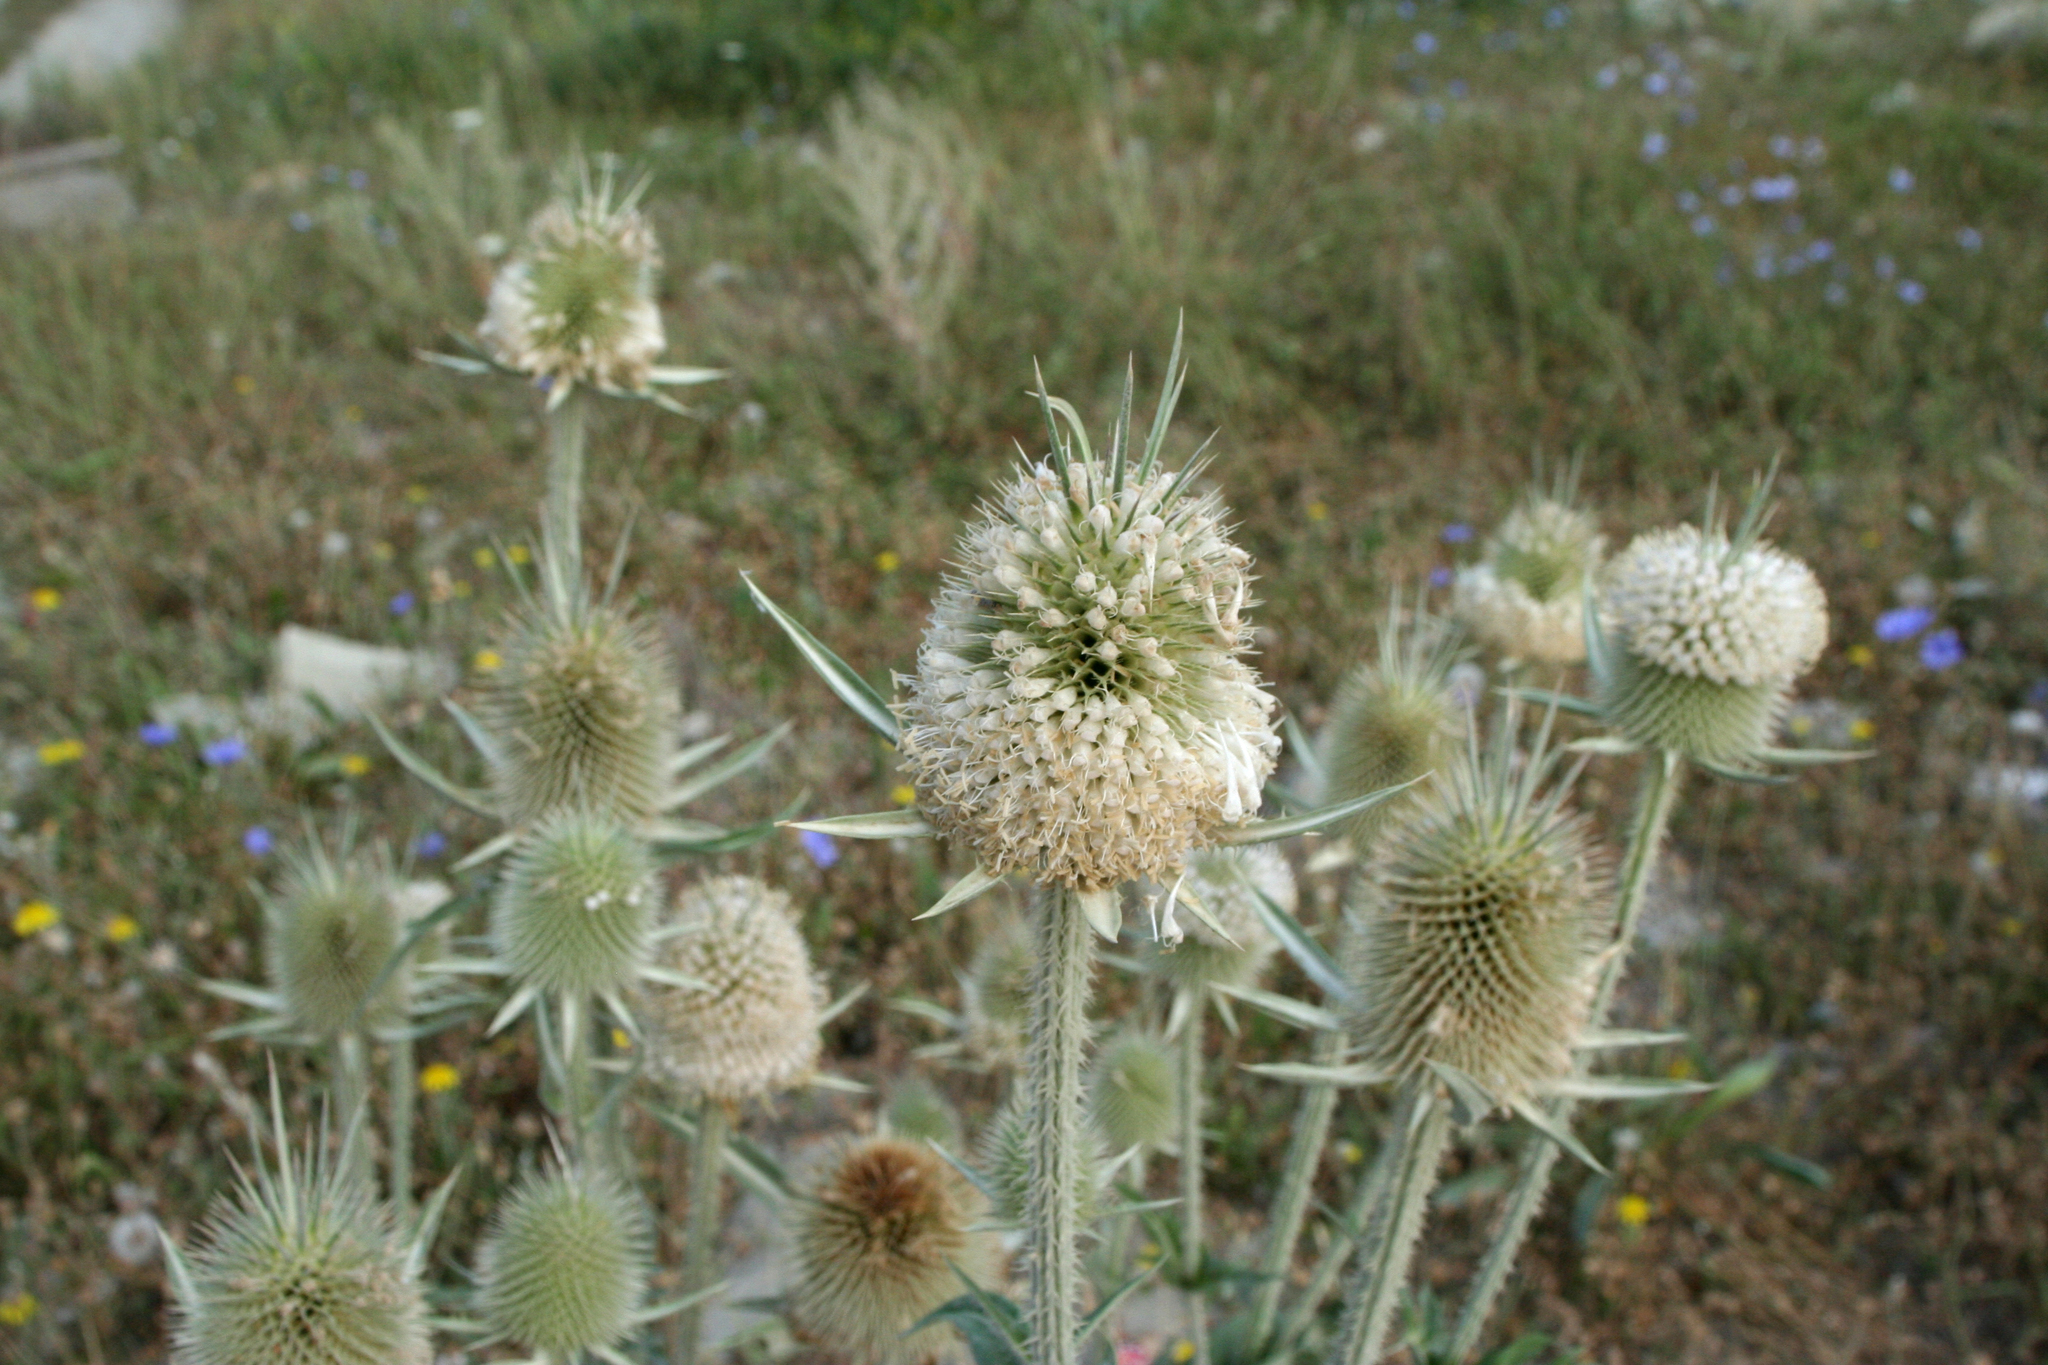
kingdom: Plantae
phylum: Tracheophyta
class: Magnoliopsida
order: Dipsacales
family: Caprifoliaceae
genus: Dipsacus
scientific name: Dipsacus laciniatus
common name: Cut-leaved teasel
